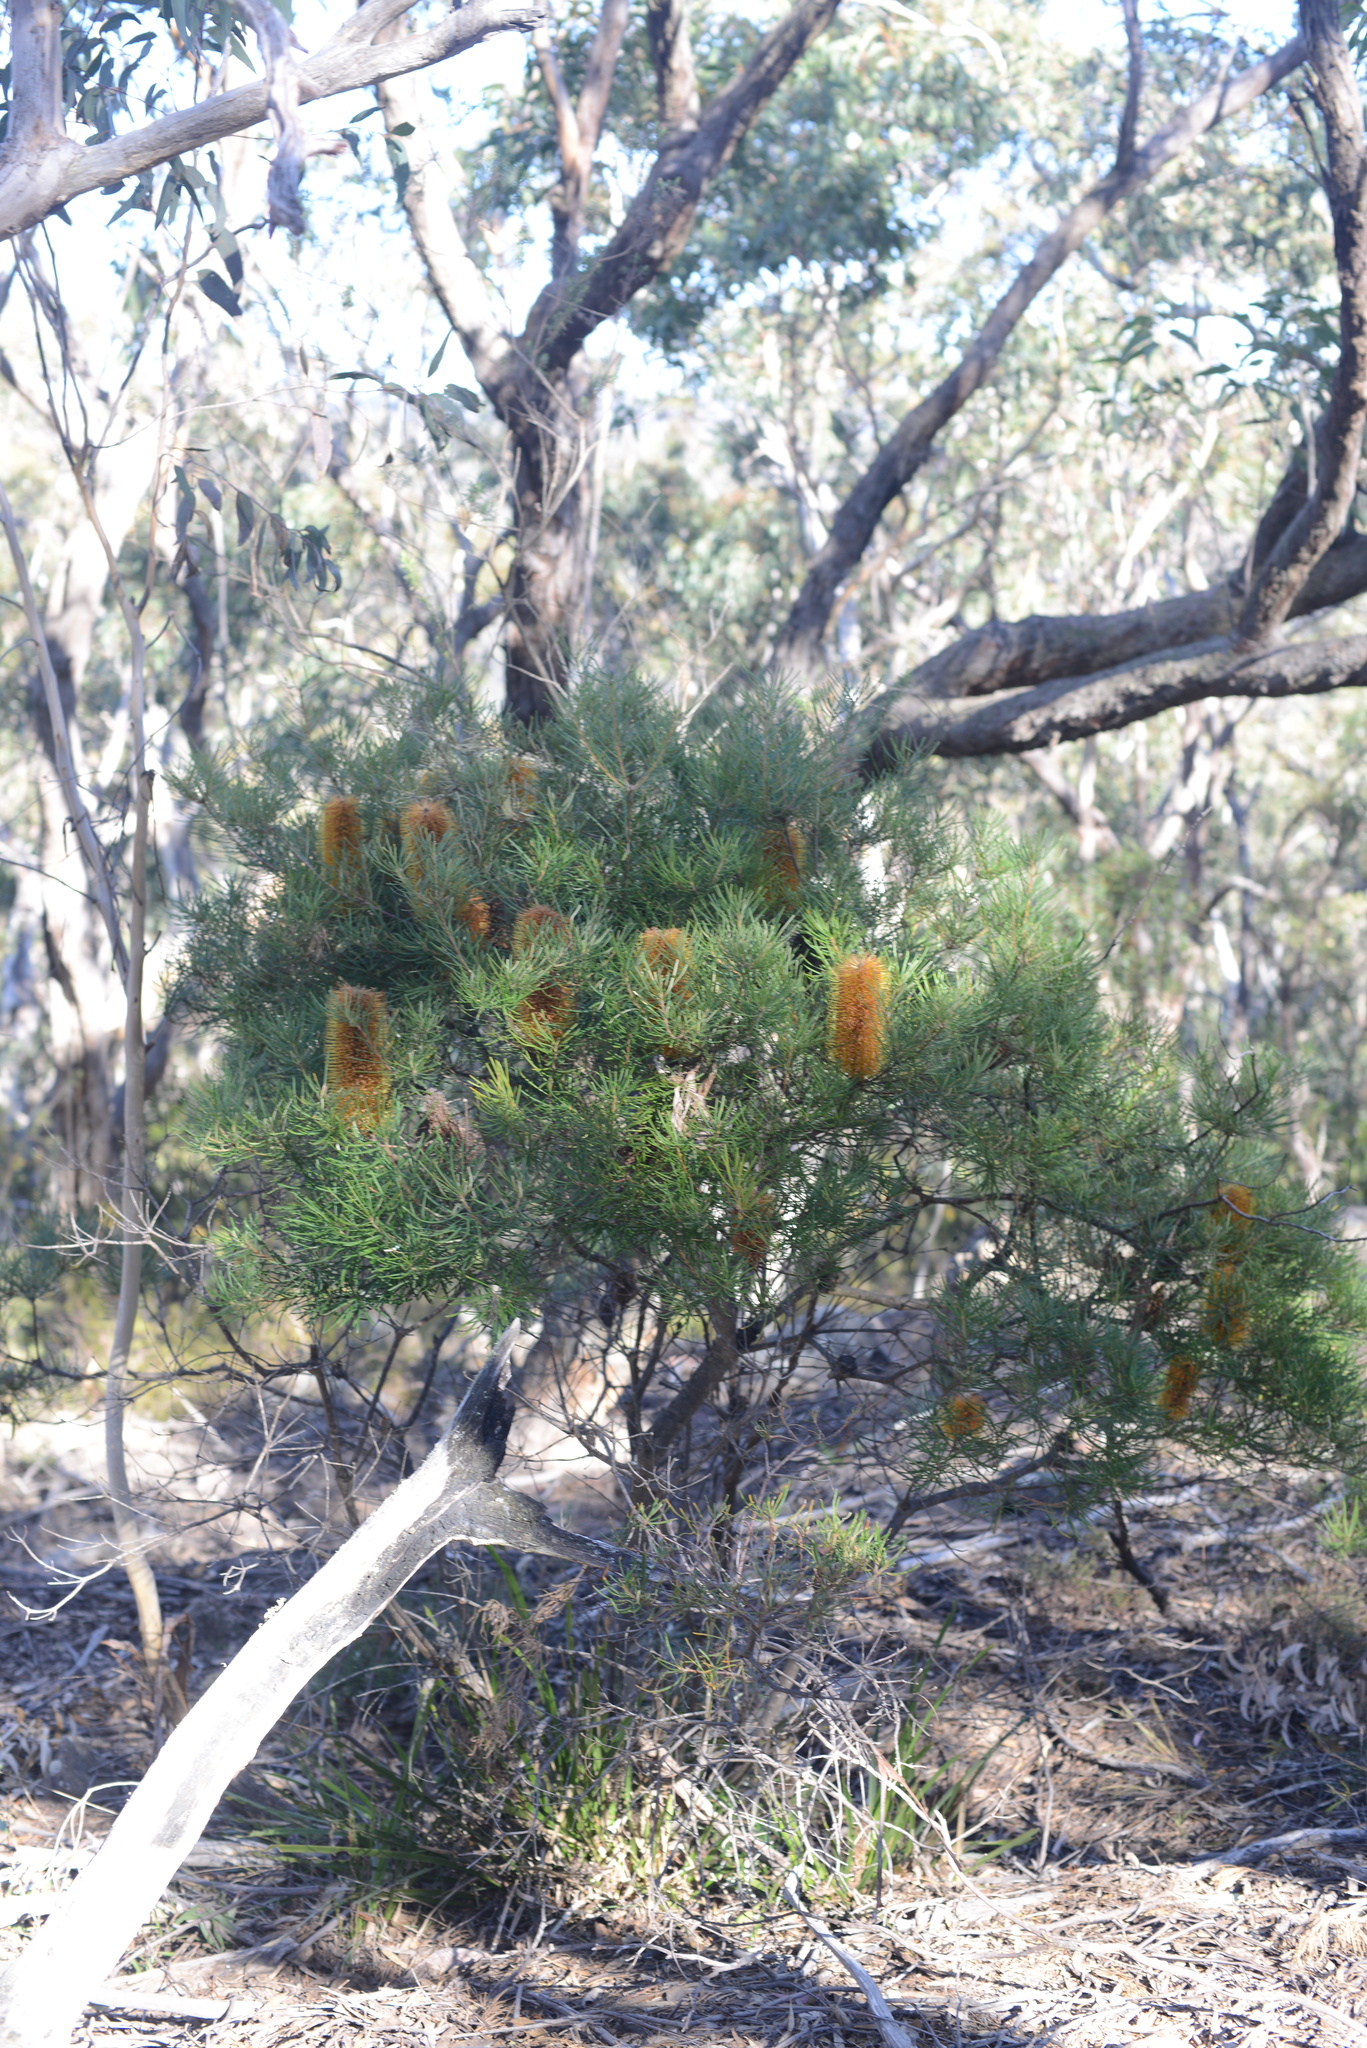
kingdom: Plantae
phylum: Tracheophyta
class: Magnoliopsida
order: Proteales
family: Proteaceae
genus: Banksia
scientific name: Banksia spinulosa
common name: Hairpin banksia
